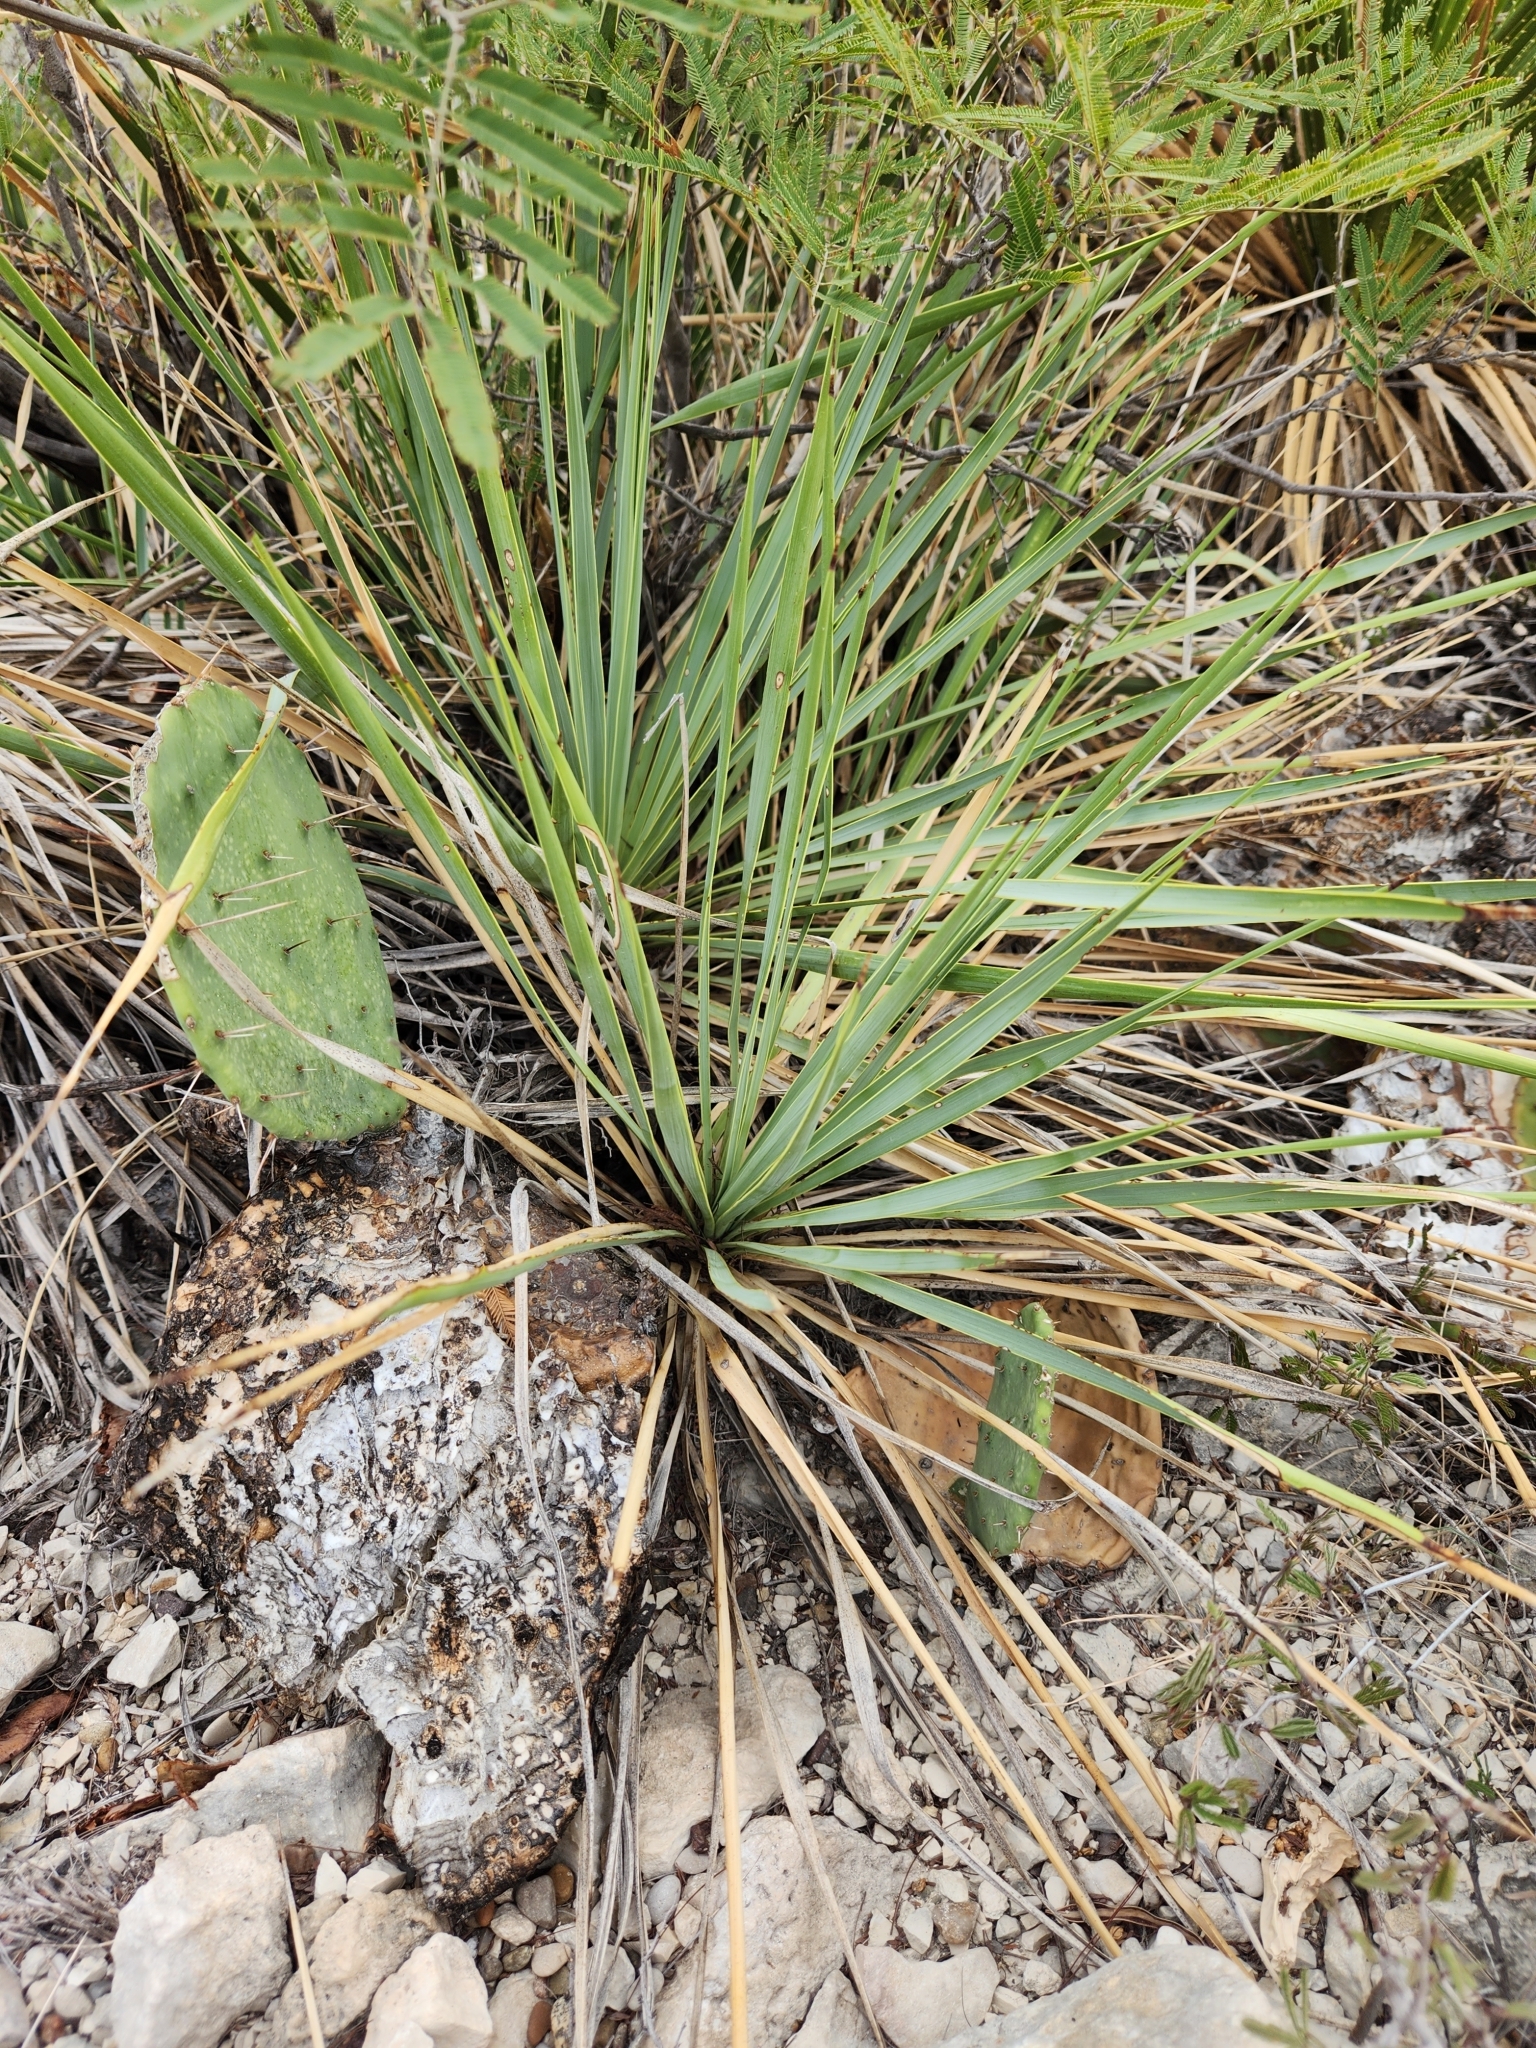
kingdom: Plantae
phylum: Tracheophyta
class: Liliopsida
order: Asparagales
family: Asparagaceae
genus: Yucca
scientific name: Yucca thompsoniana
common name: Trans-pecos yucca
